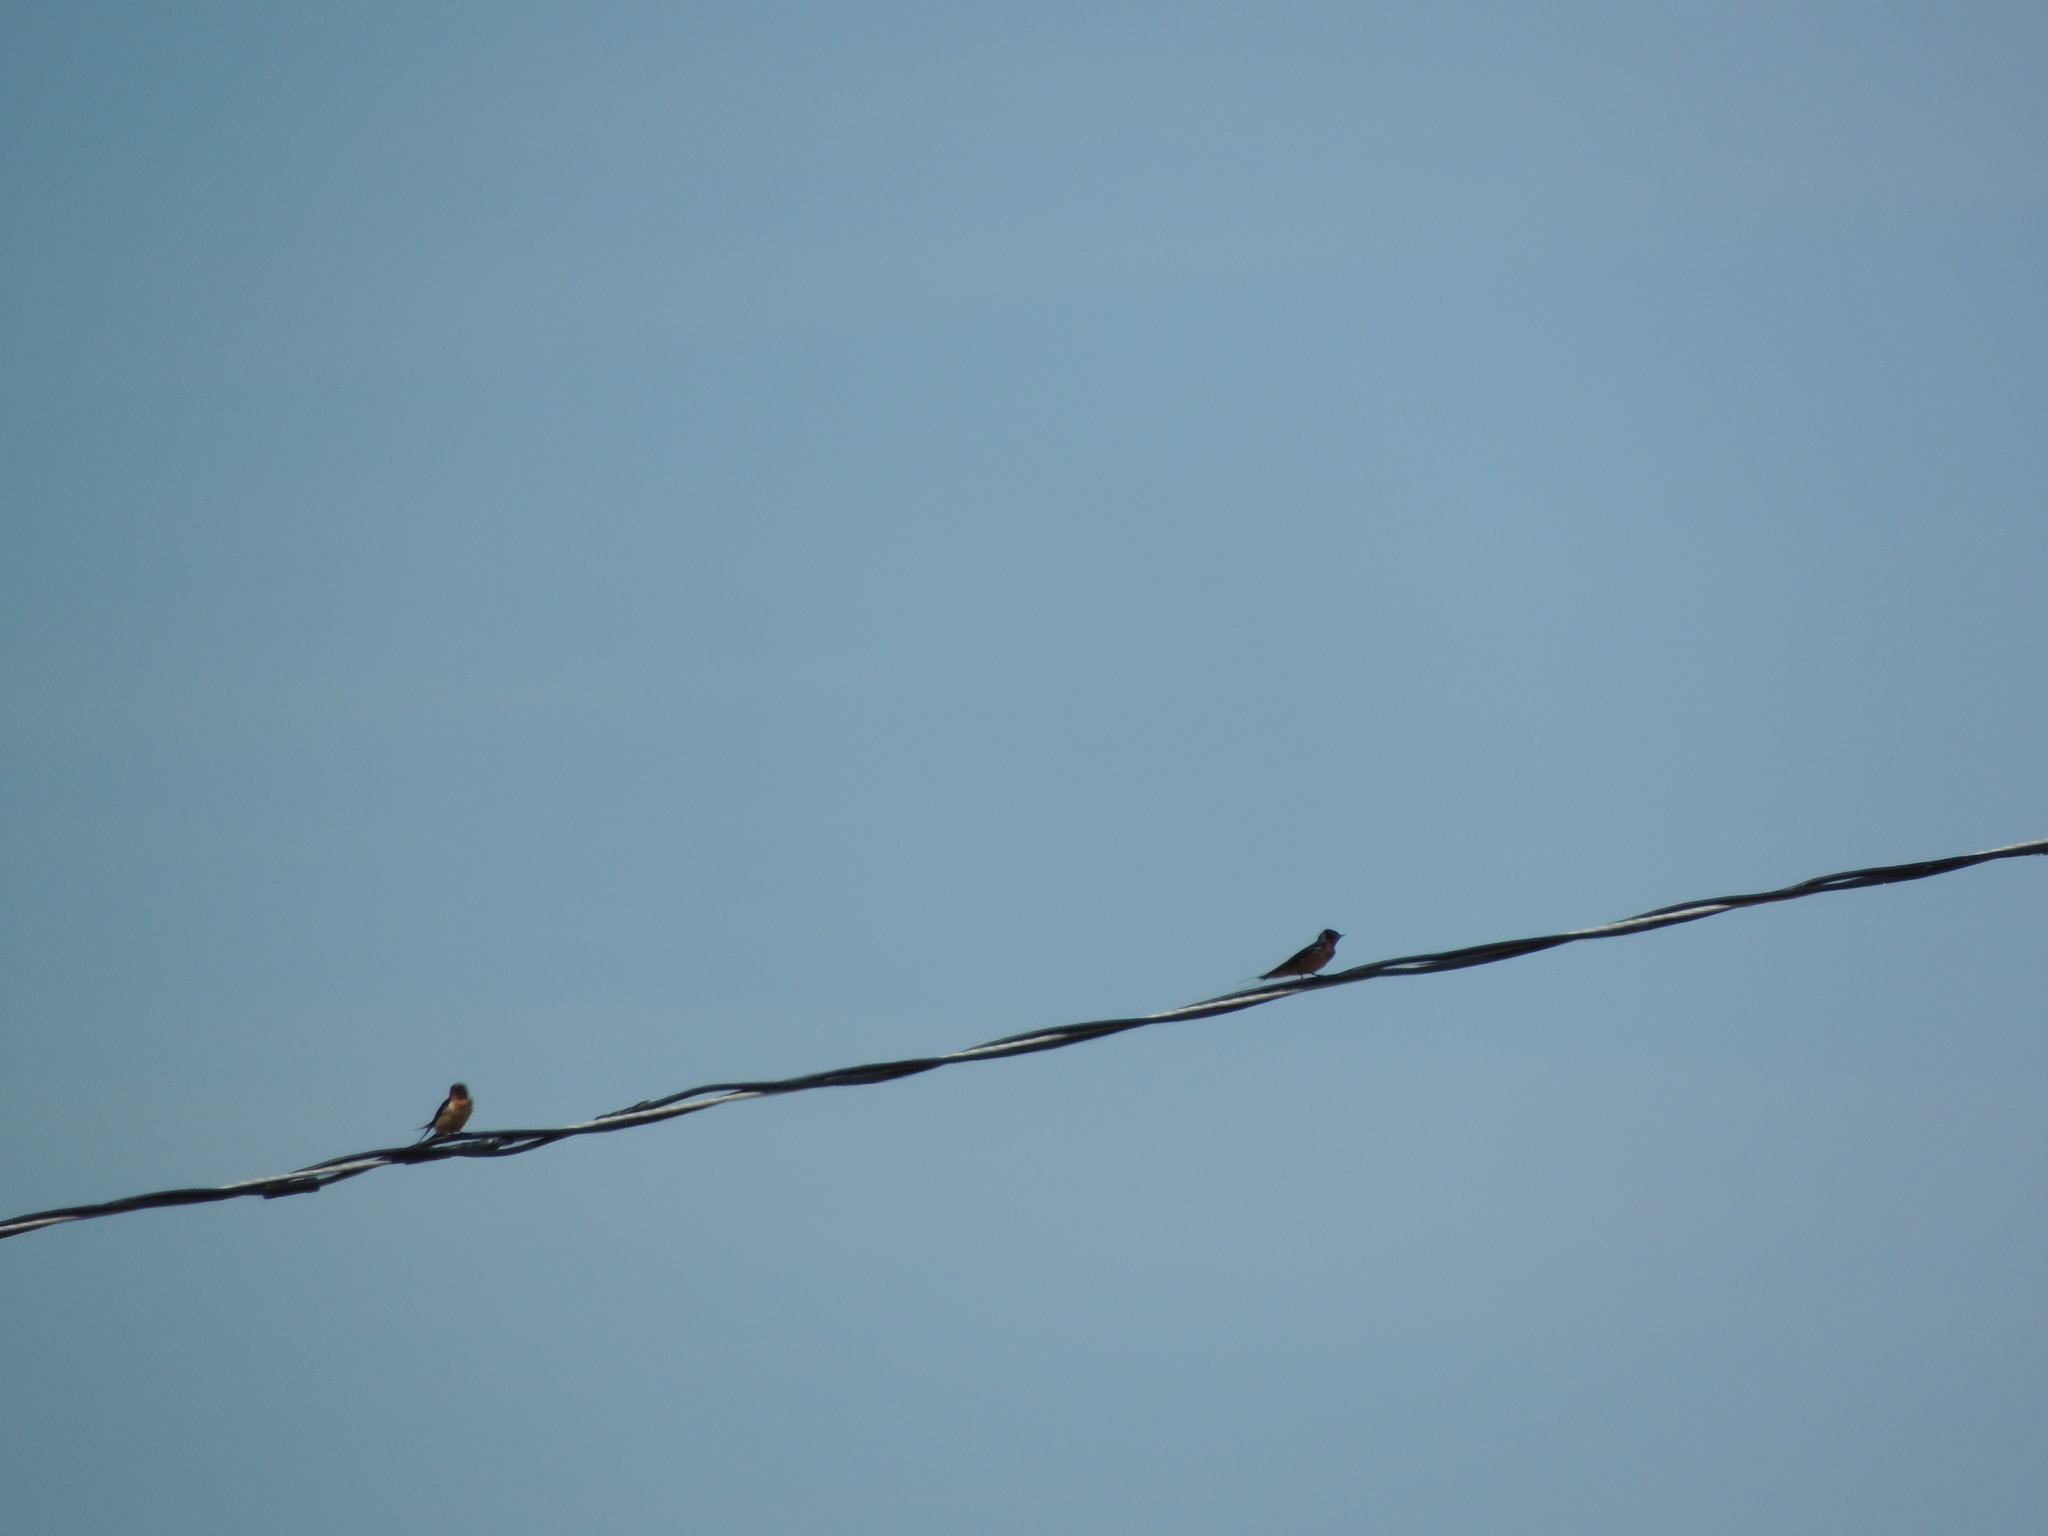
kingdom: Animalia
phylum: Chordata
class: Aves
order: Passeriformes
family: Hirundinidae
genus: Hirundo
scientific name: Hirundo rustica
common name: Barn swallow
